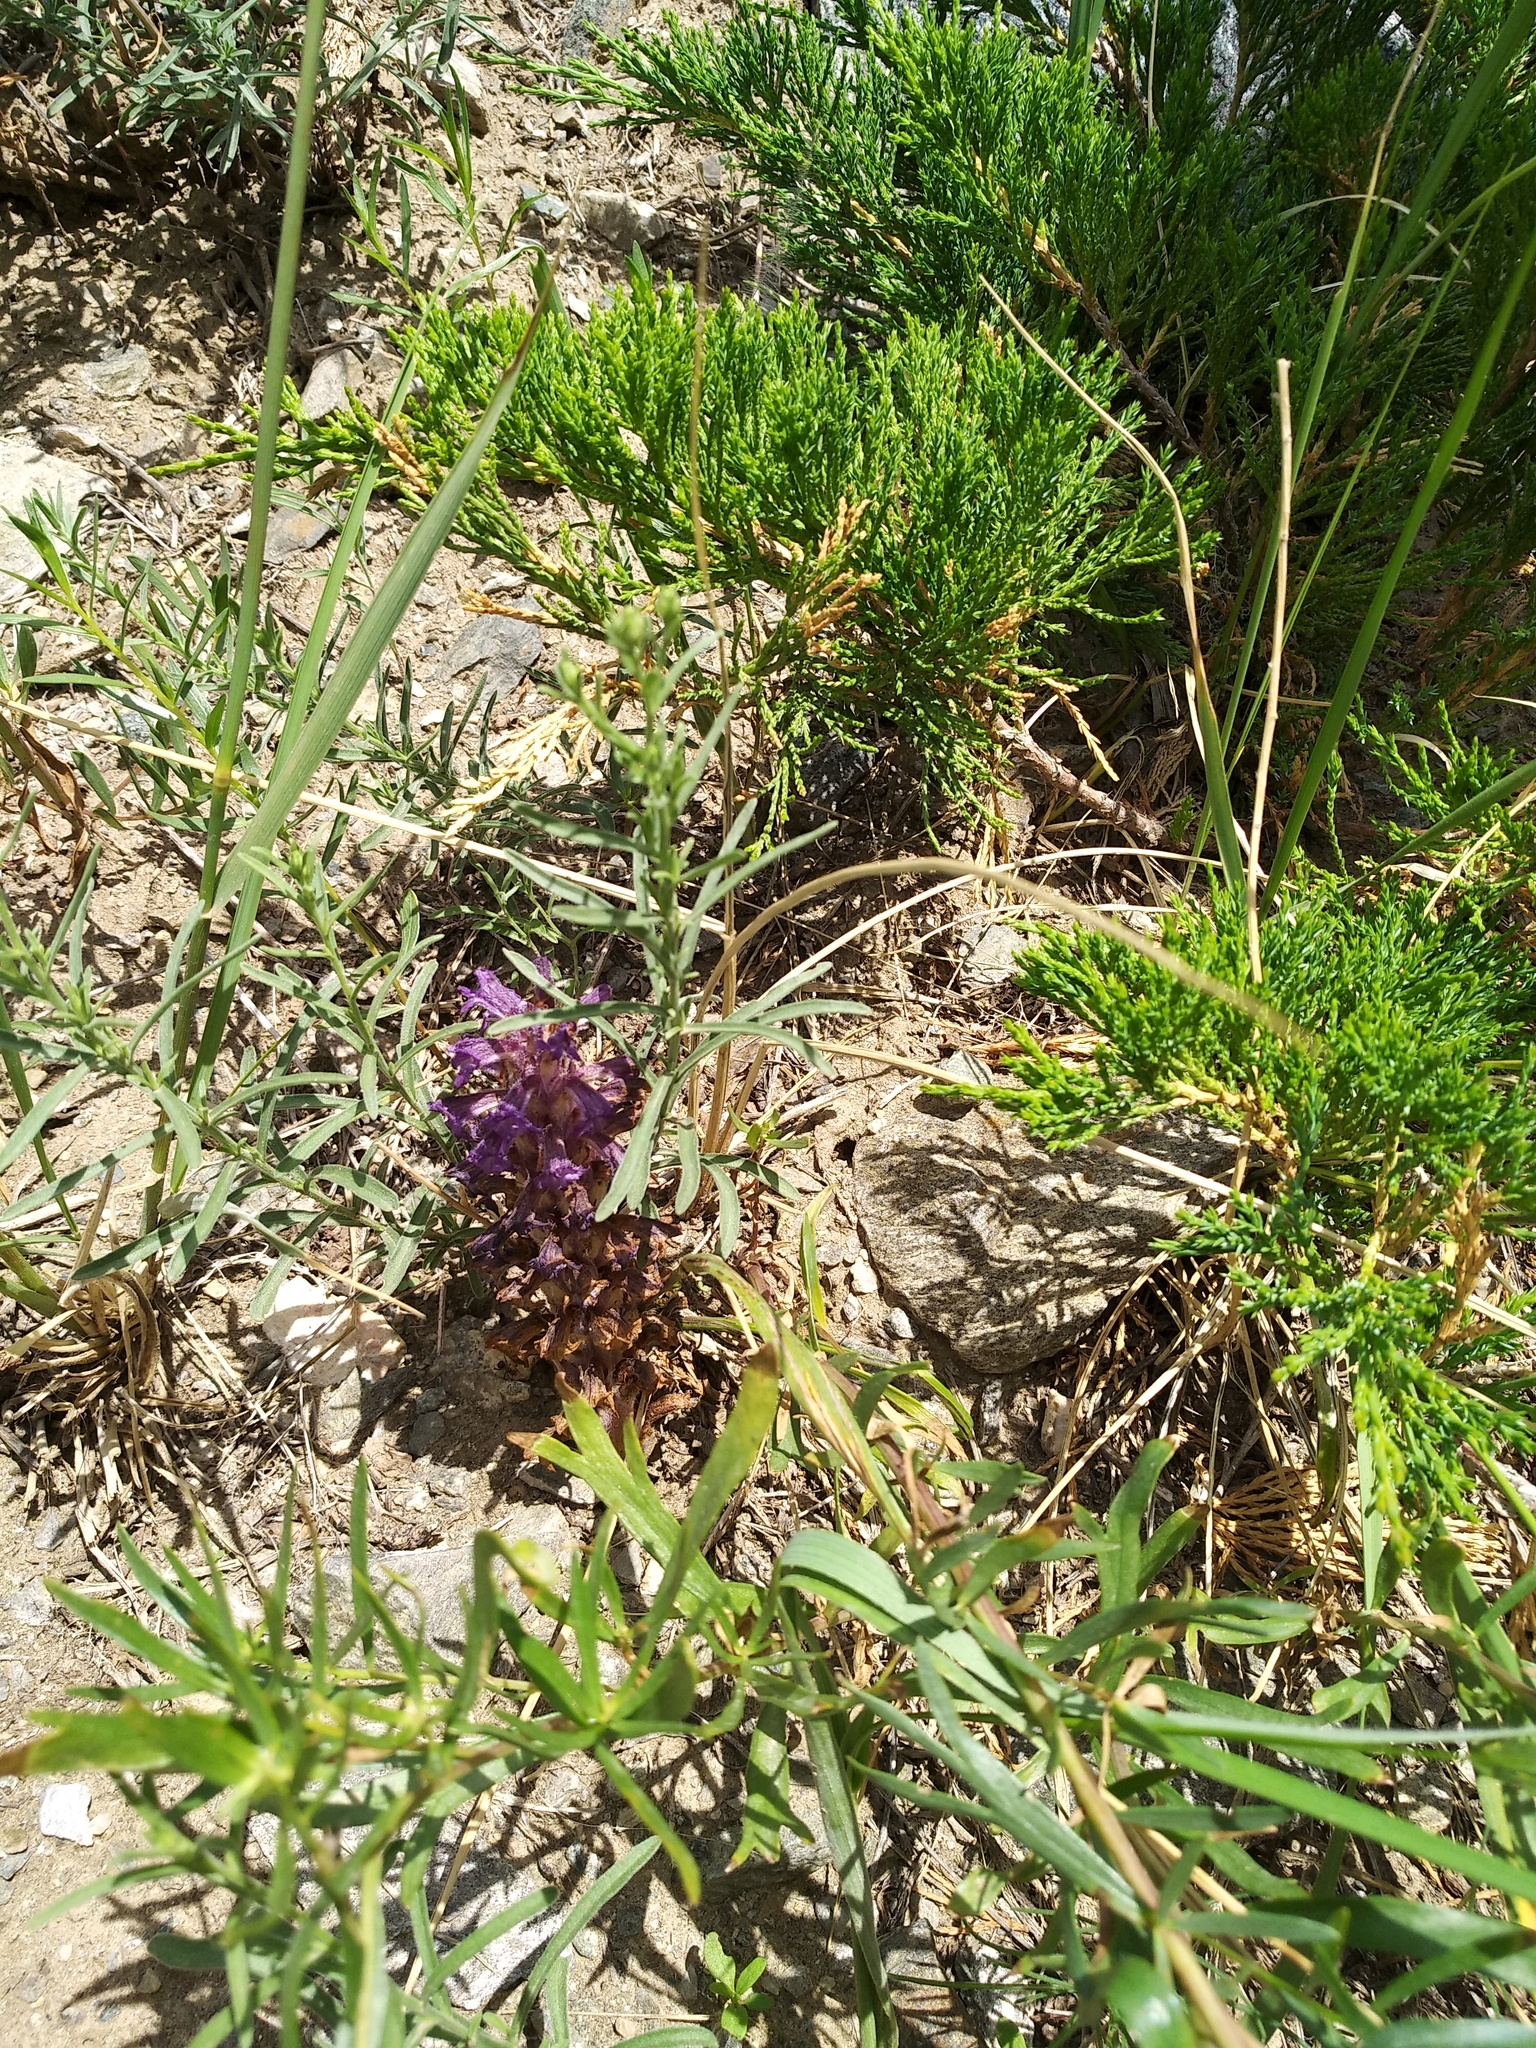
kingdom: Plantae
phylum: Tracheophyta
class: Magnoliopsida
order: Lamiales
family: Orobanchaceae
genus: Orobanche
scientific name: Orobanche coerulescens
